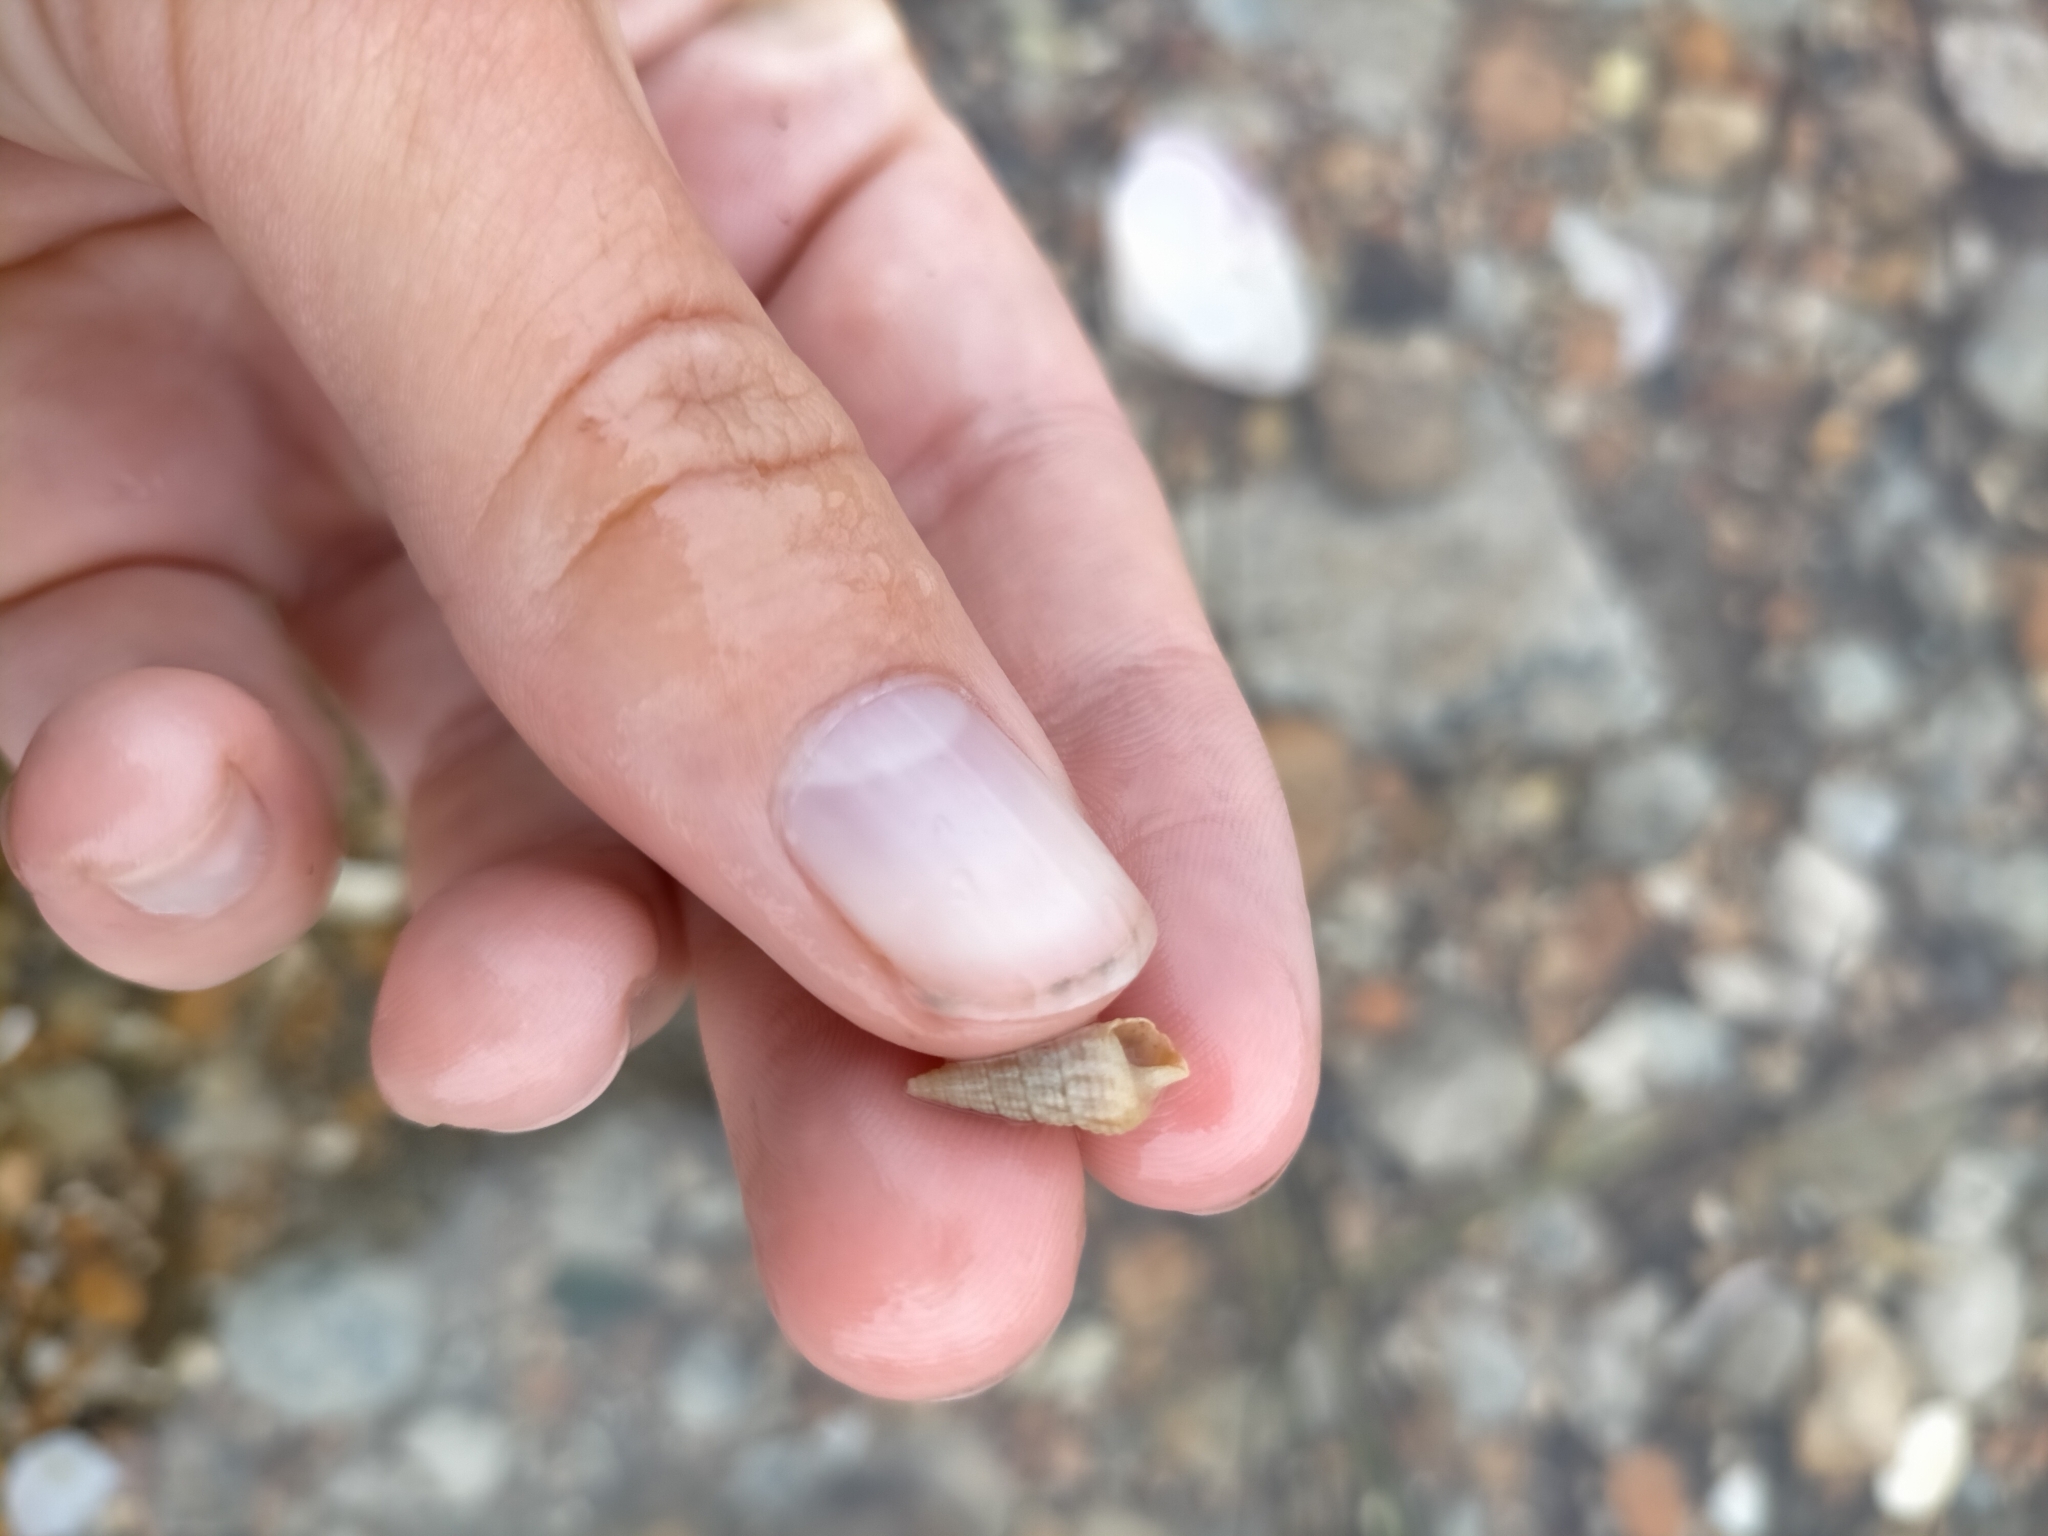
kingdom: Animalia
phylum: Mollusca
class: Gastropoda
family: Batillariidae
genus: Zeacumantus
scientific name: Zeacumantus diemenensis
